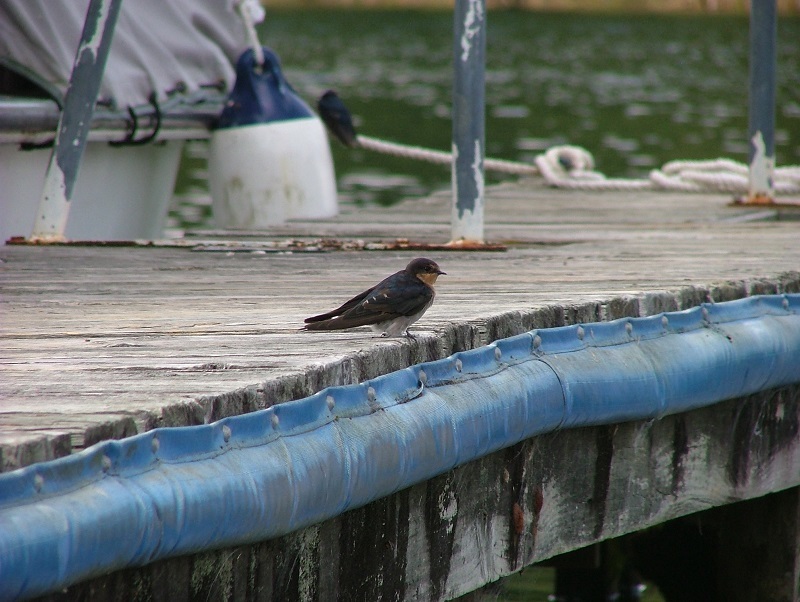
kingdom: Animalia
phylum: Chordata
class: Aves
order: Passeriformes
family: Hirundinidae
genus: Hirundo
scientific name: Hirundo neoxena
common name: Welcome swallow
